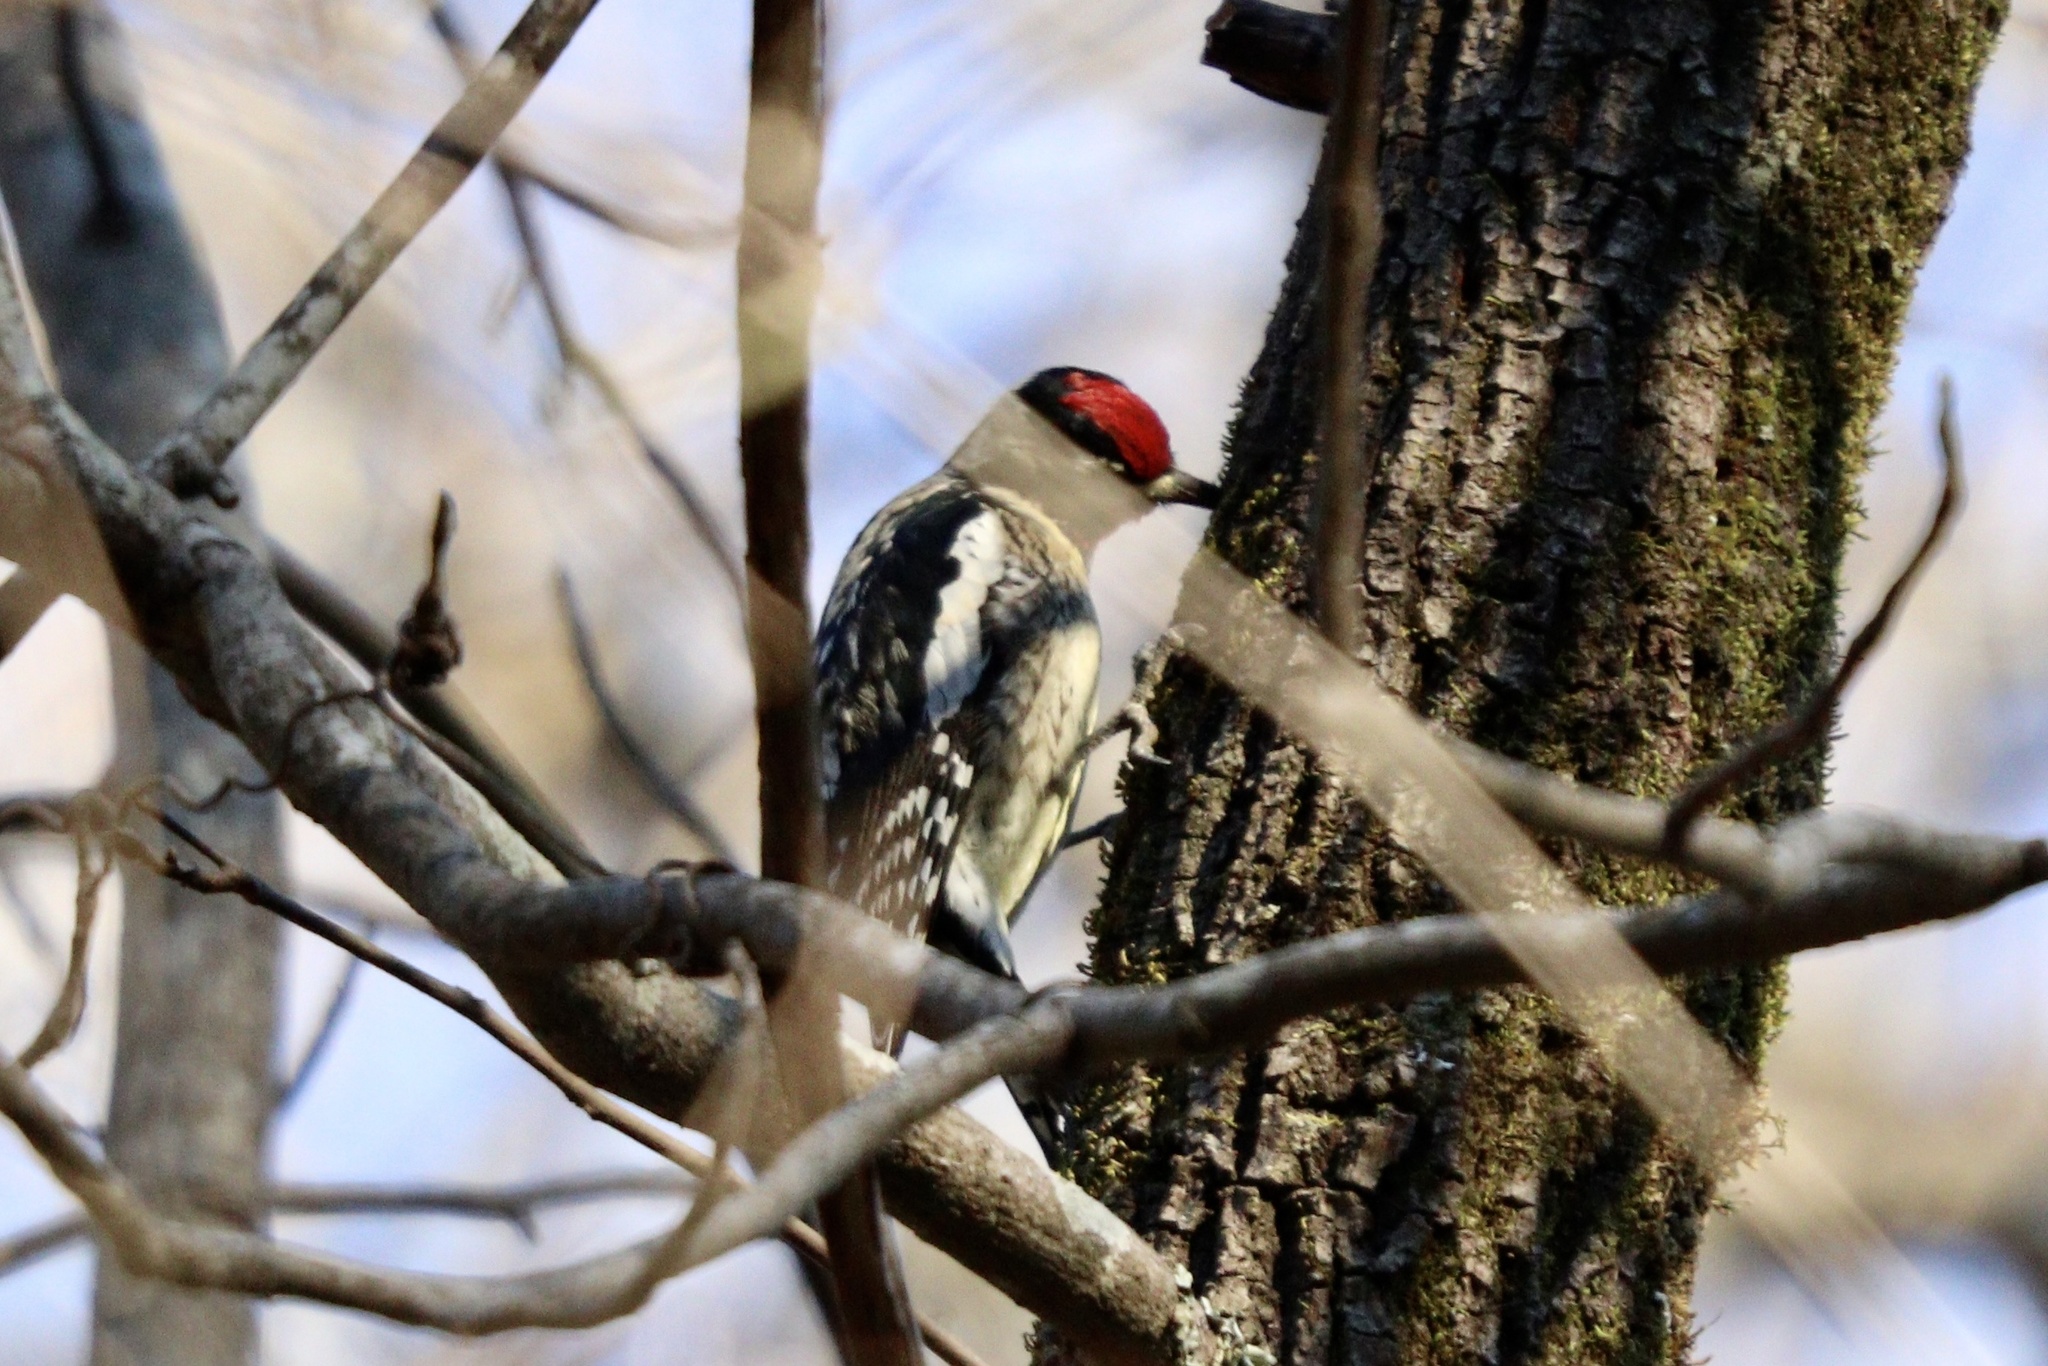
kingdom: Animalia
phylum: Chordata
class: Aves
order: Piciformes
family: Picidae
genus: Sphyrapicus
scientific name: Sphyrapicus varius
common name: Yellow-bellied sapsucker
